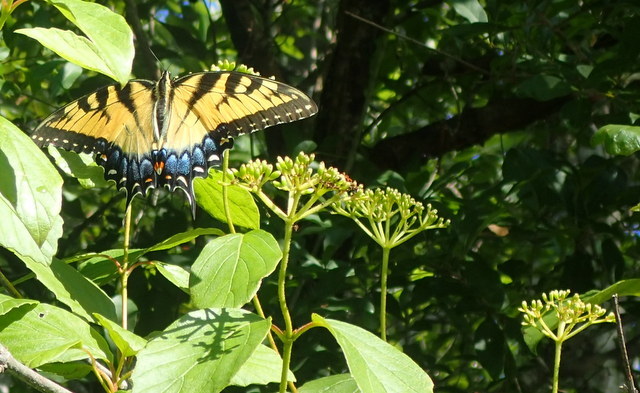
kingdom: Animalia
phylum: Arthropoda
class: Insecta
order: Lepidoptera
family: Papilionidae
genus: Papilio
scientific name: Papilio glaucus
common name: Tiger swallowtail
